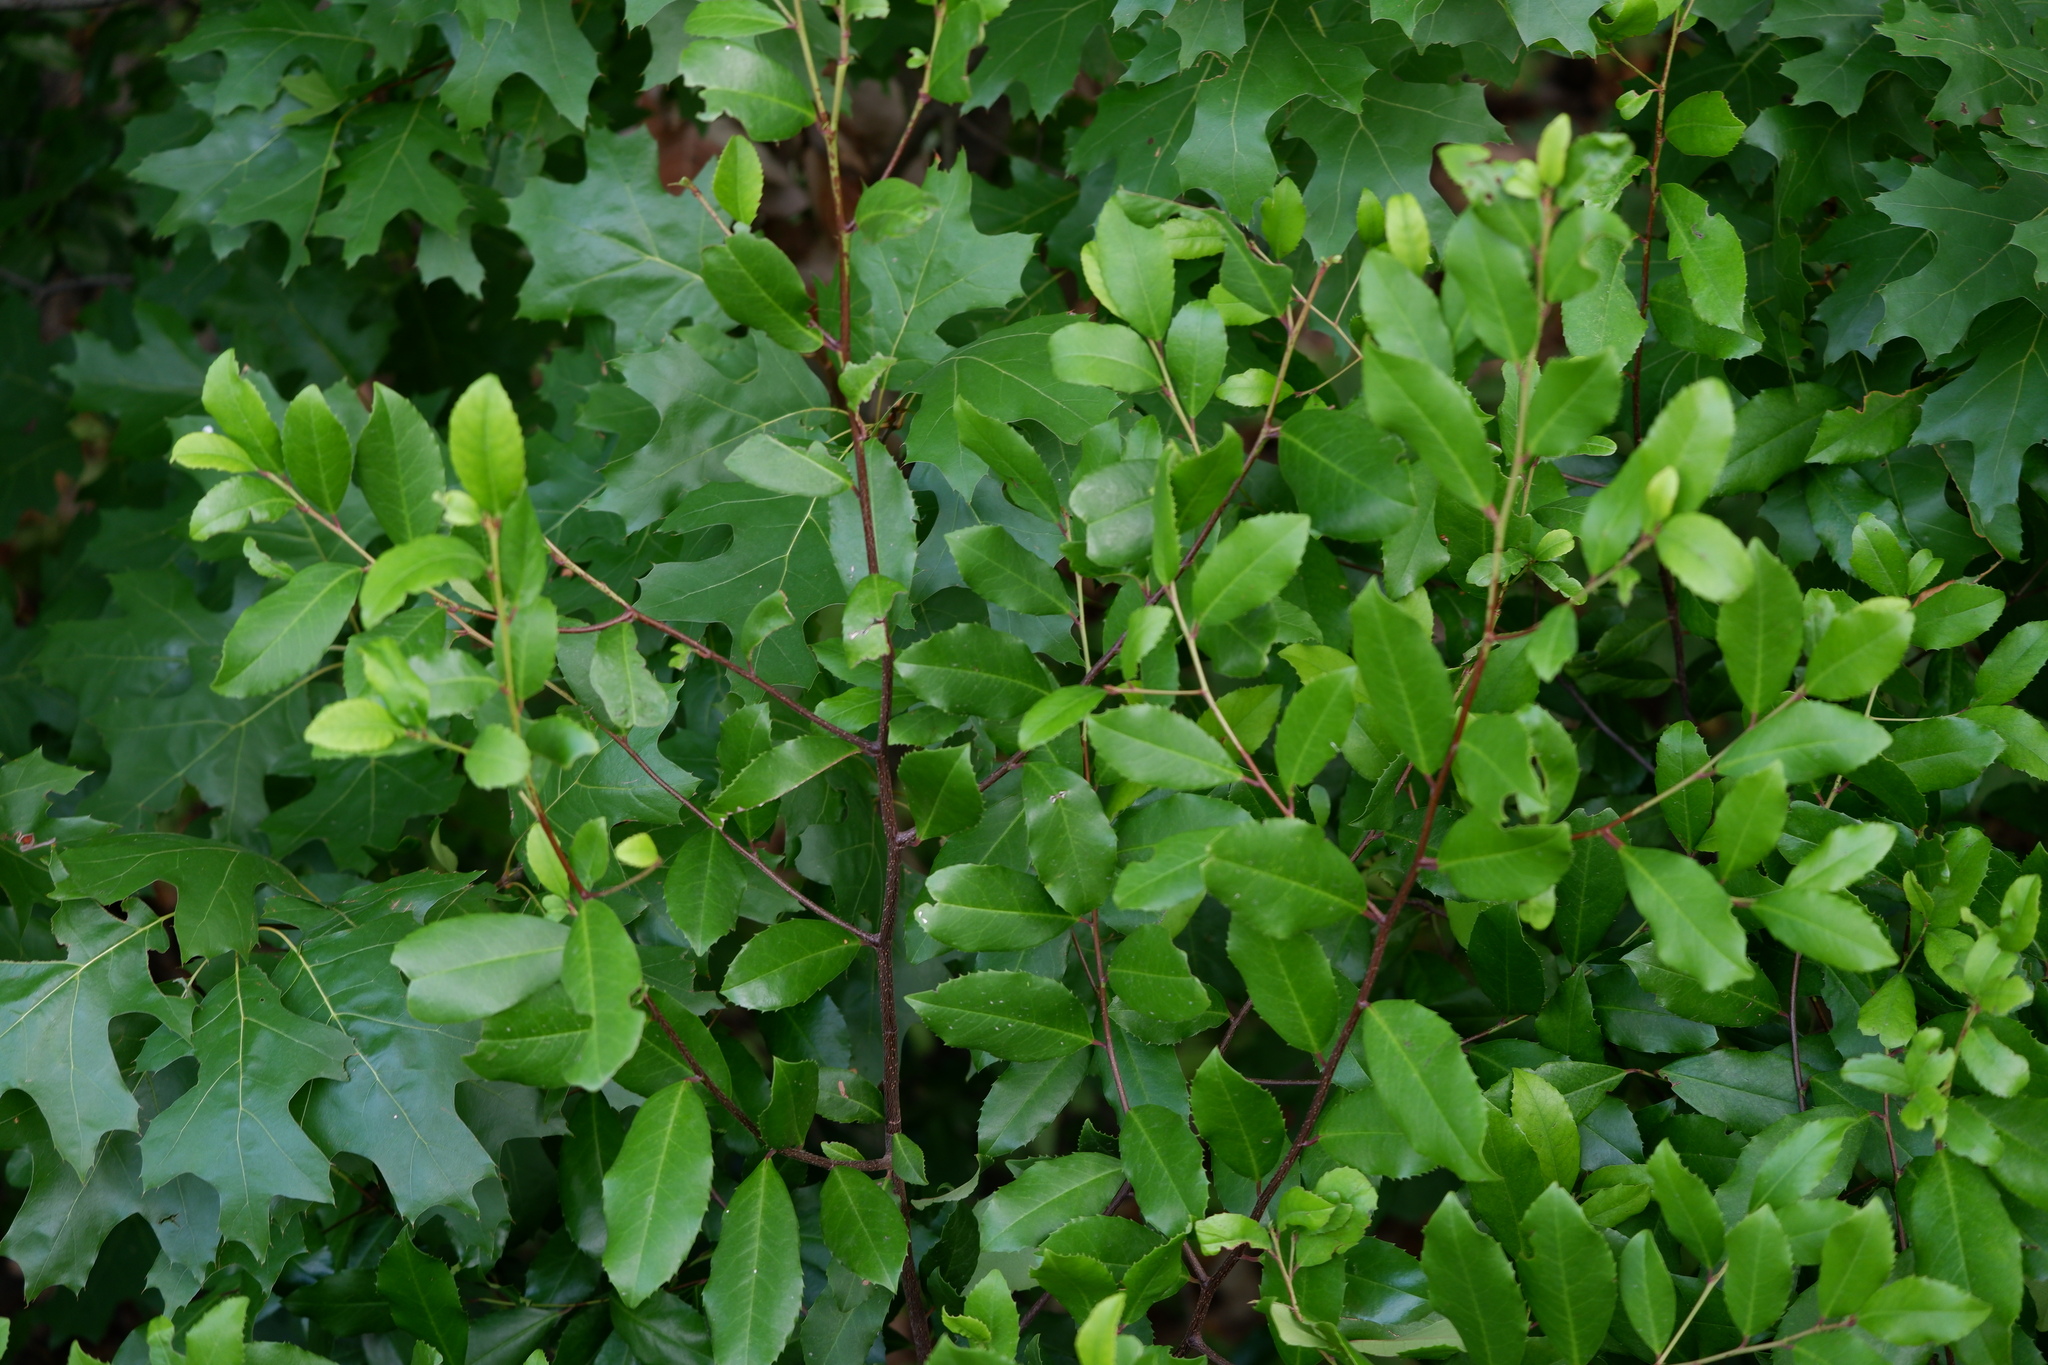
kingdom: Plantae
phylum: Tracheophyta
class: Magnoliopsida
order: Rosales
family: Rosaceae
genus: Prunus
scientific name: Prunus caroliniana
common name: Carolina laurel cherry
